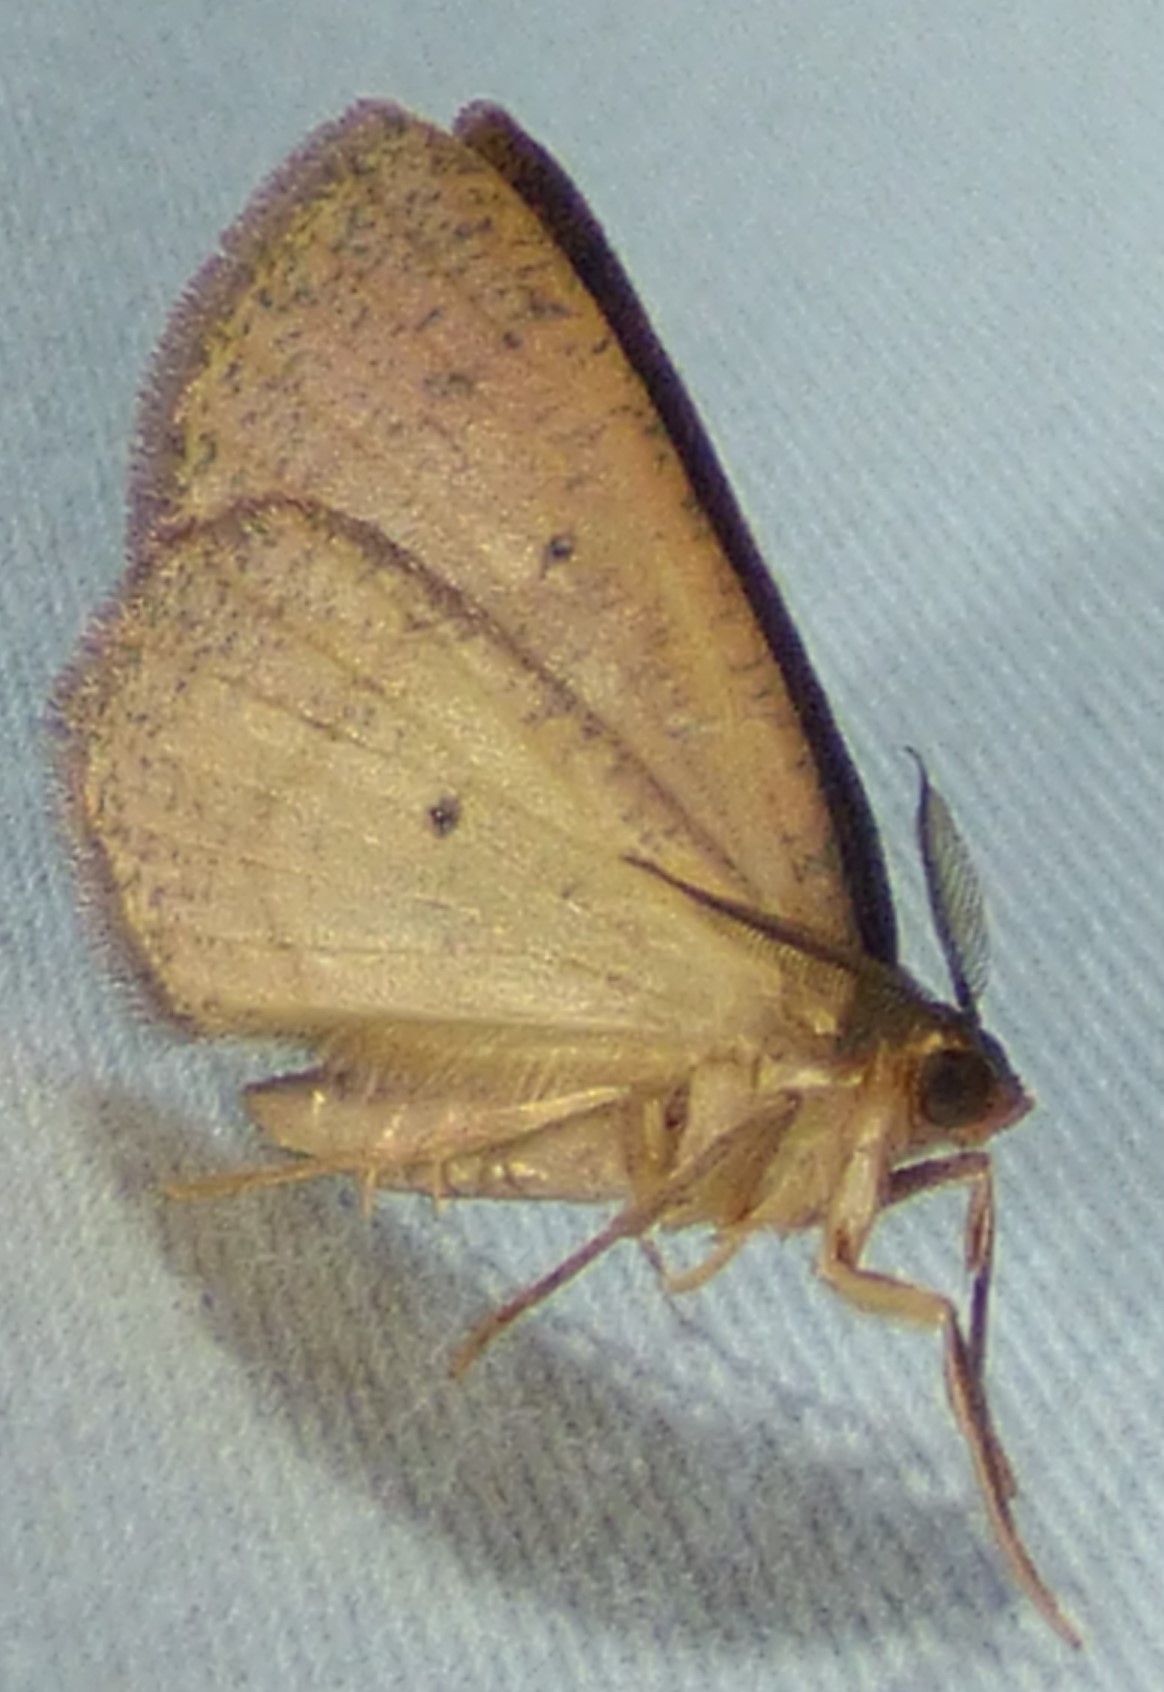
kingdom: Animalia
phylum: Arthropoda
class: Insecta
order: Lepidoptera
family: Geometridae
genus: Ilexia
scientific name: Ilexia intractata
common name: Black-dotted ruddy moth
